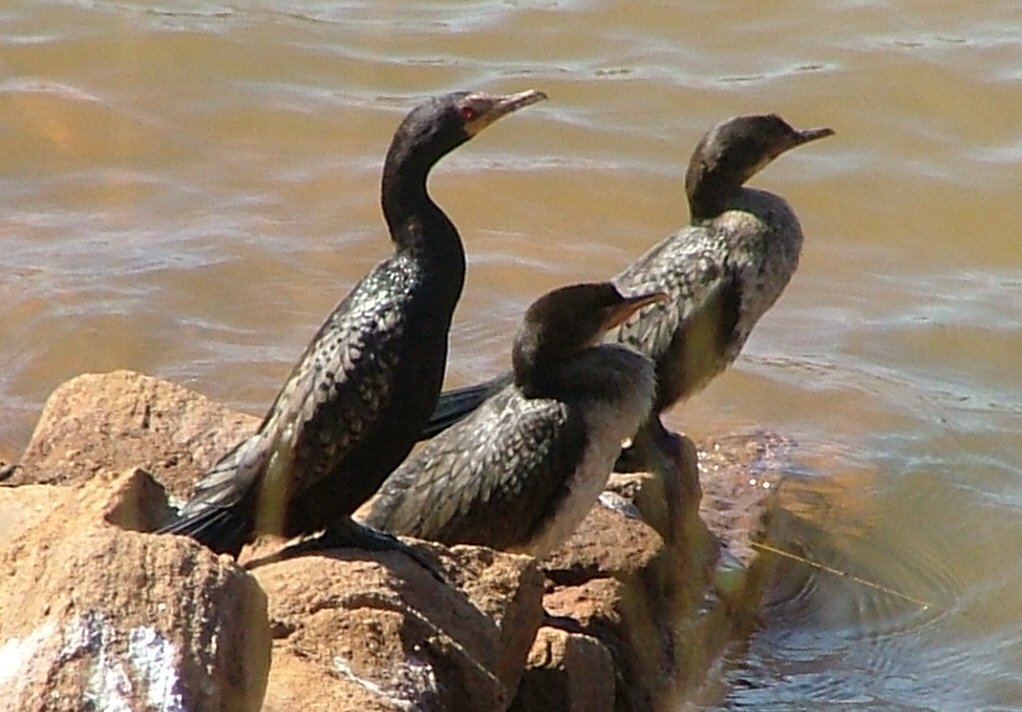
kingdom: Animalia
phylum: Chordata
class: Aves
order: Suliformes
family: Phalacrocoracidae
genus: Microcarbo
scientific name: Microcarbo africanus
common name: Long-tailed cormorant
